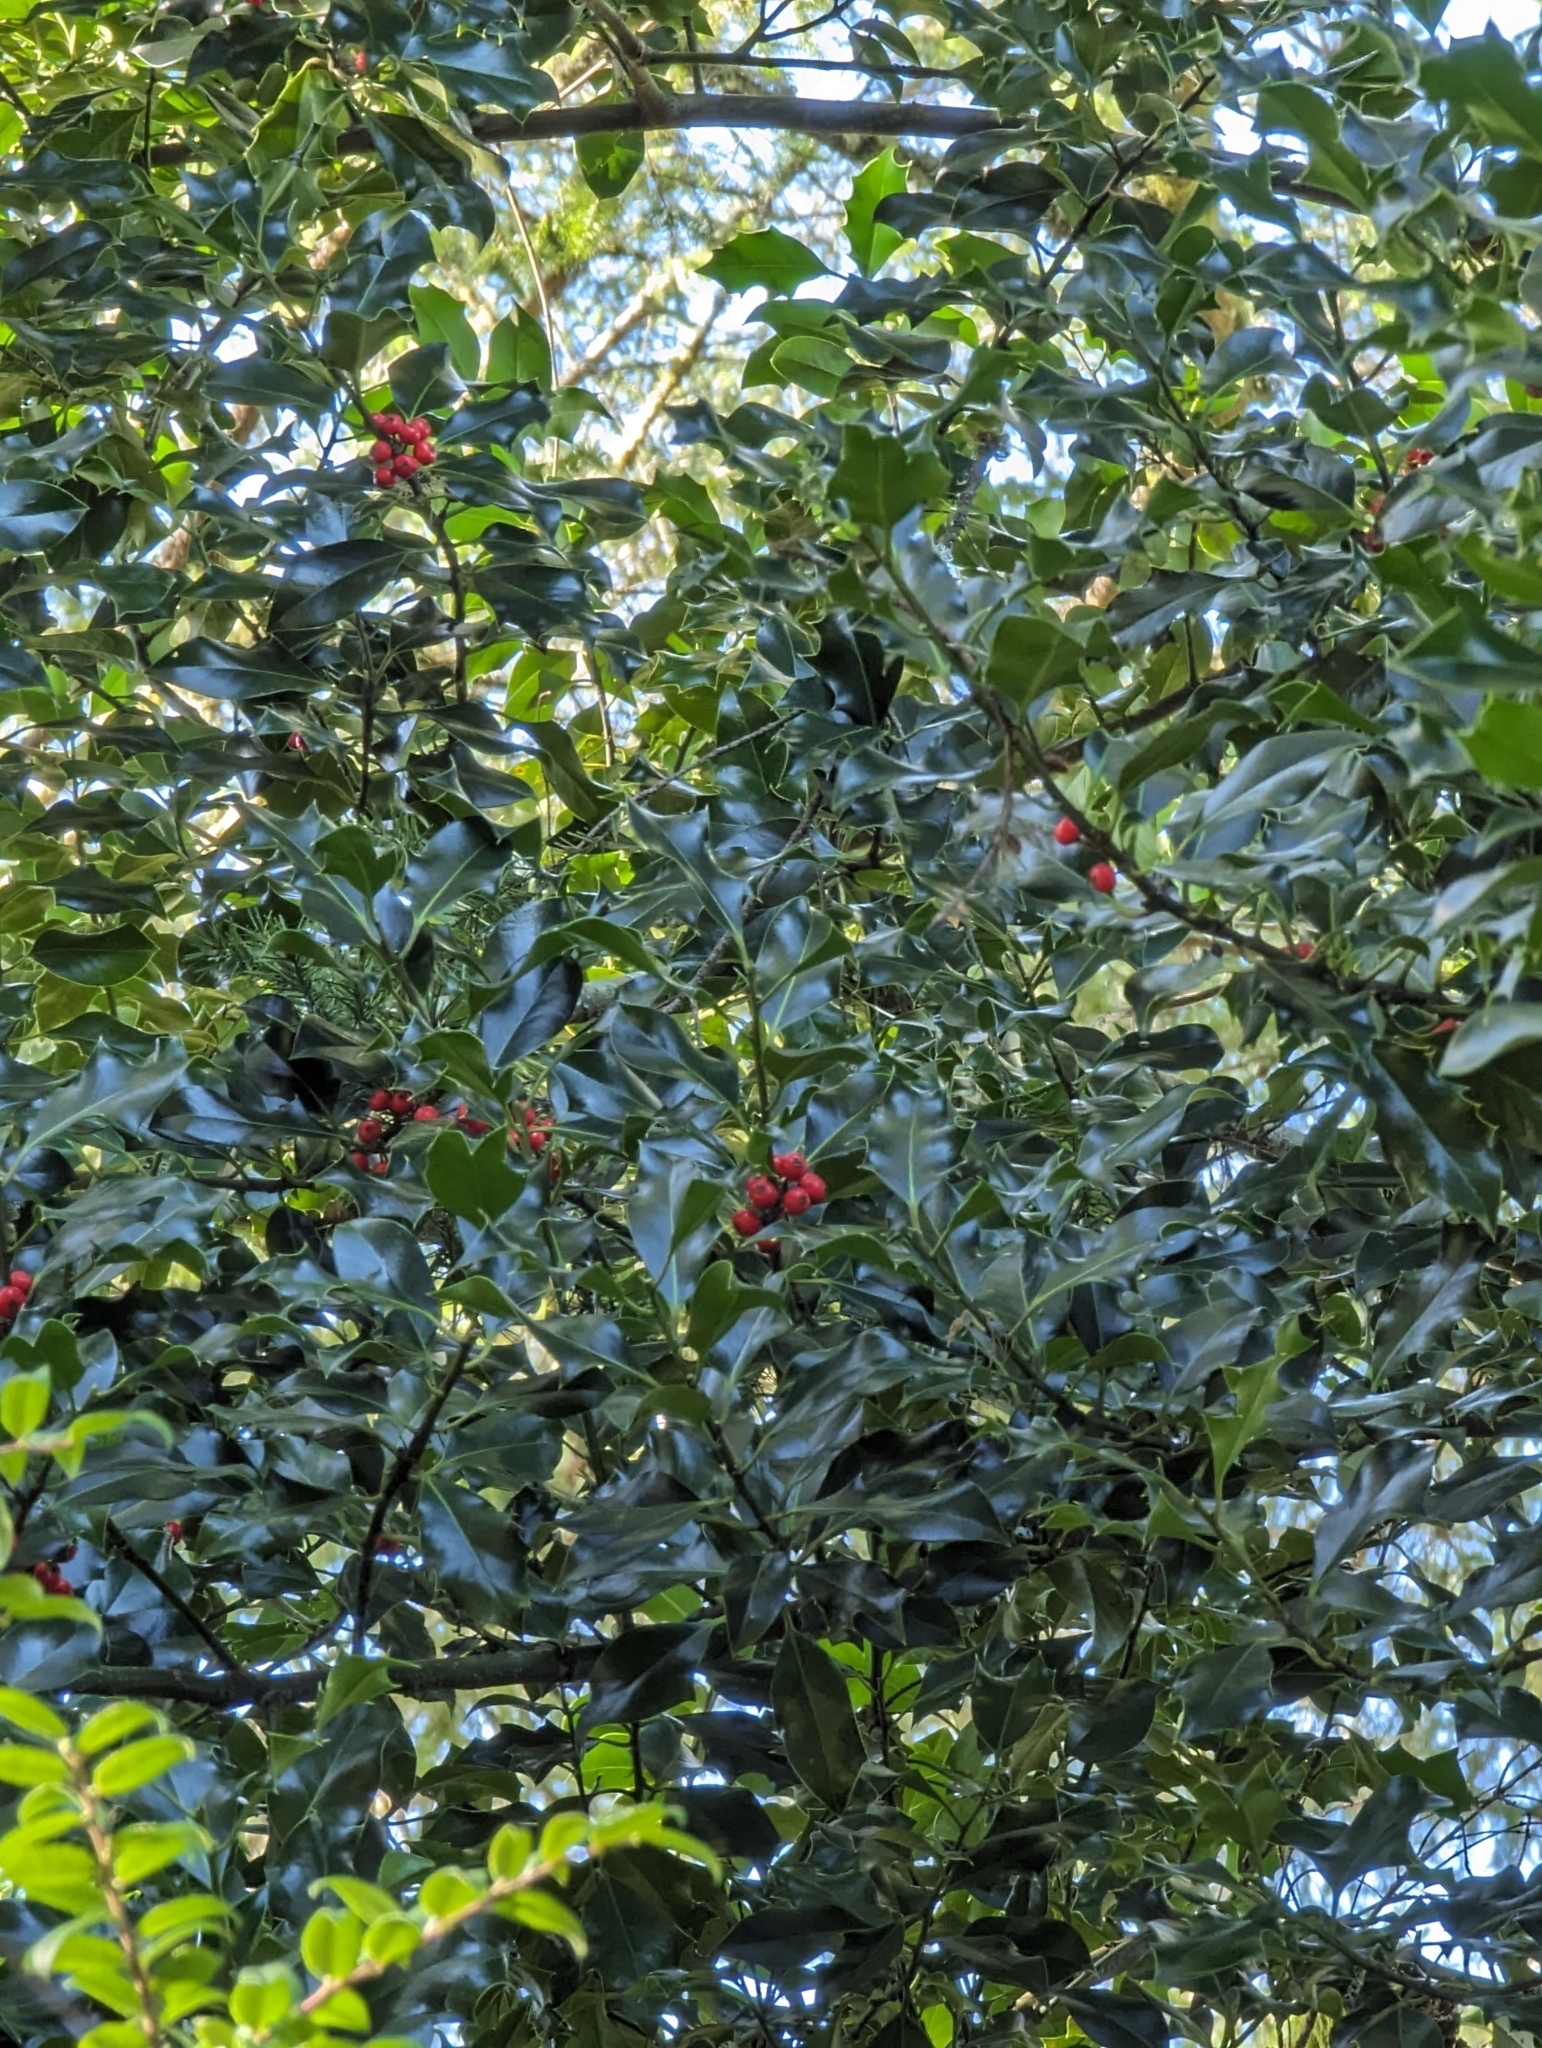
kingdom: Plantae
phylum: Tracheophyta
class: Magnoliopsida
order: Aquifoliales
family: Aquifoliaceae
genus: Ilex
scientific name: Ilex aquifolium
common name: English holly
